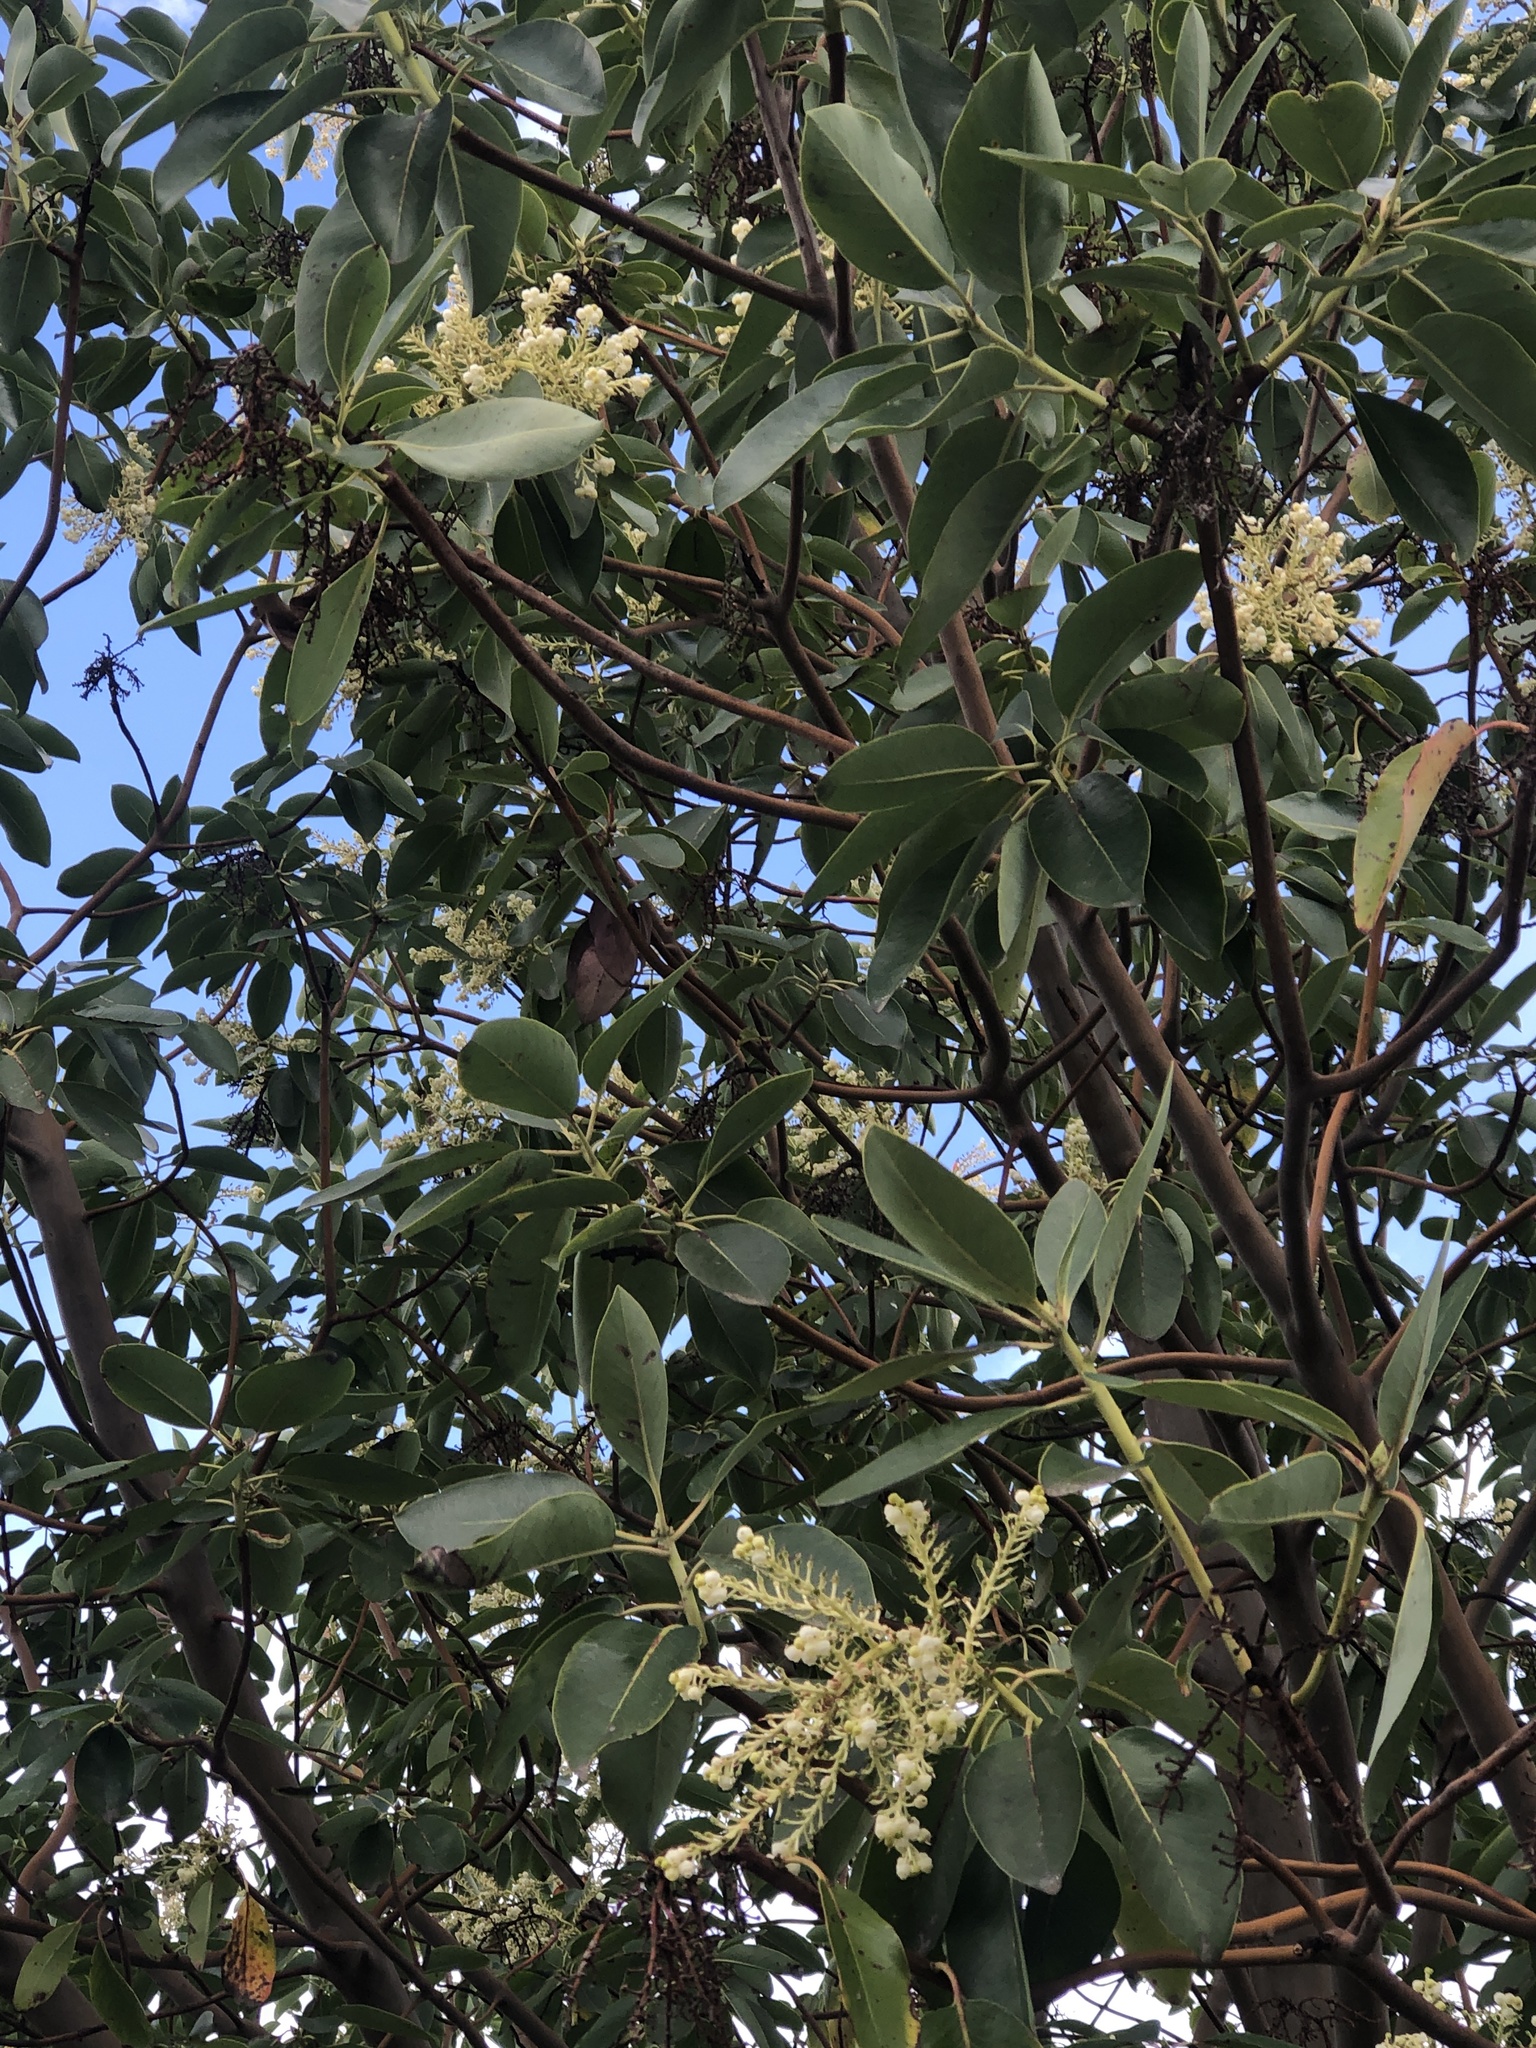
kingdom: Plantae
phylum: Tracheophyta
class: Magnoliopsida
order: Ericales
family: Ericaceae
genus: Arbutus
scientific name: Arbutus menziesii
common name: Pacific madrone
